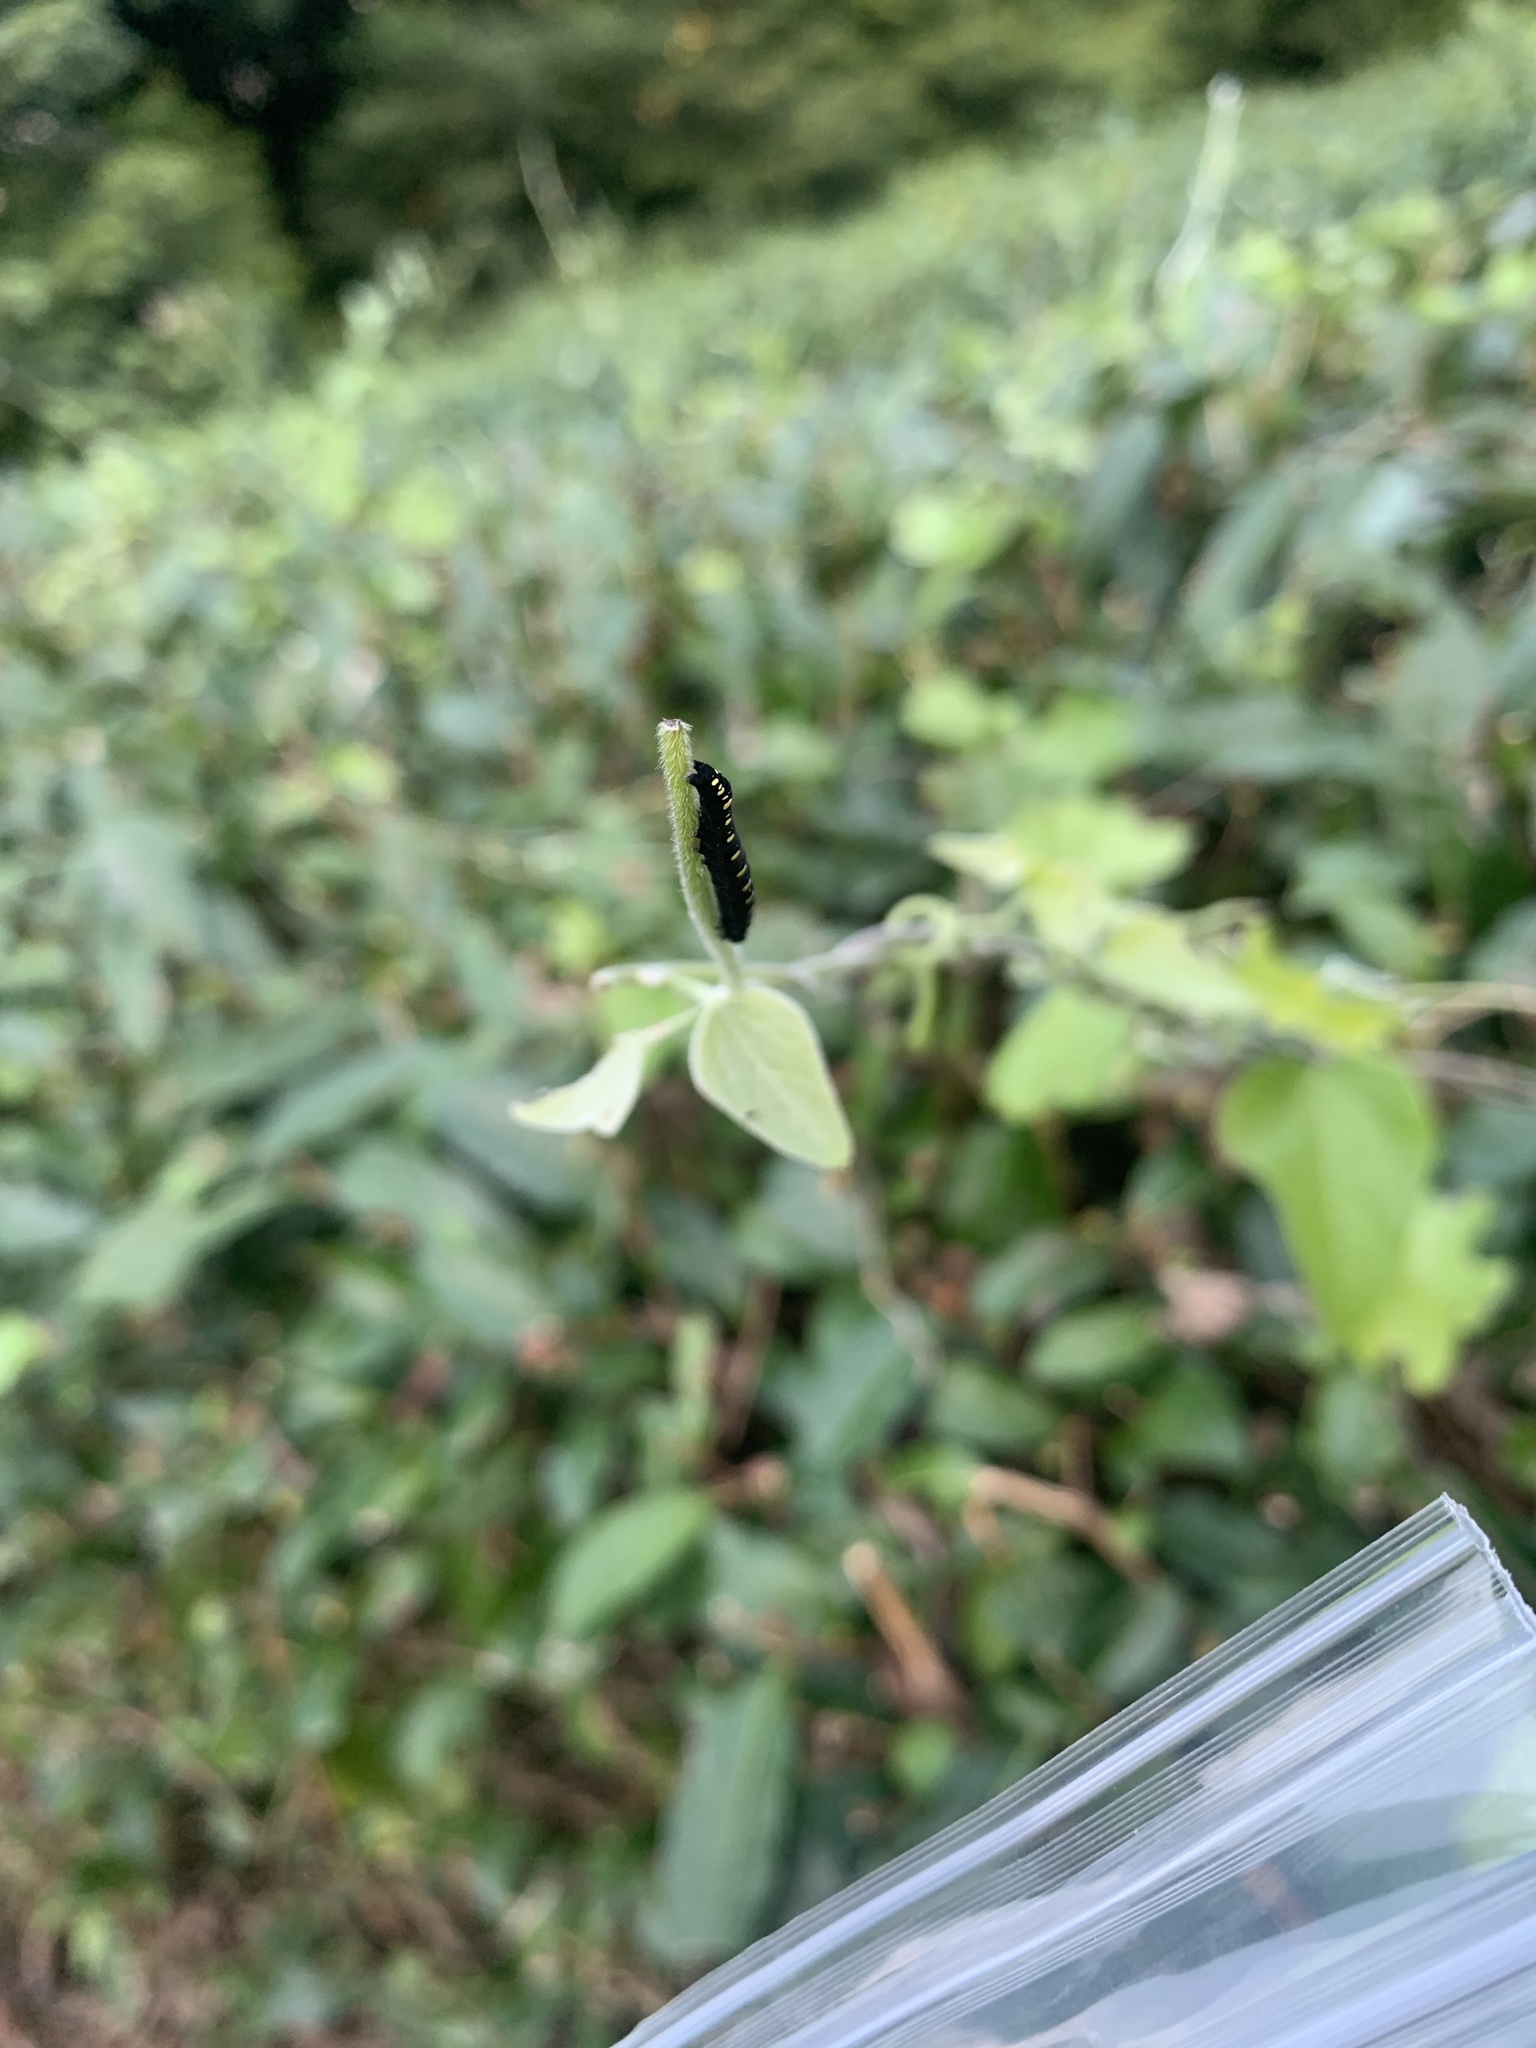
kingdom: Animalia
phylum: Arthropoda
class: Insecta
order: Lepidoptera
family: Erebidae
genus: Oraesia
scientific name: Oraesia emarginata
